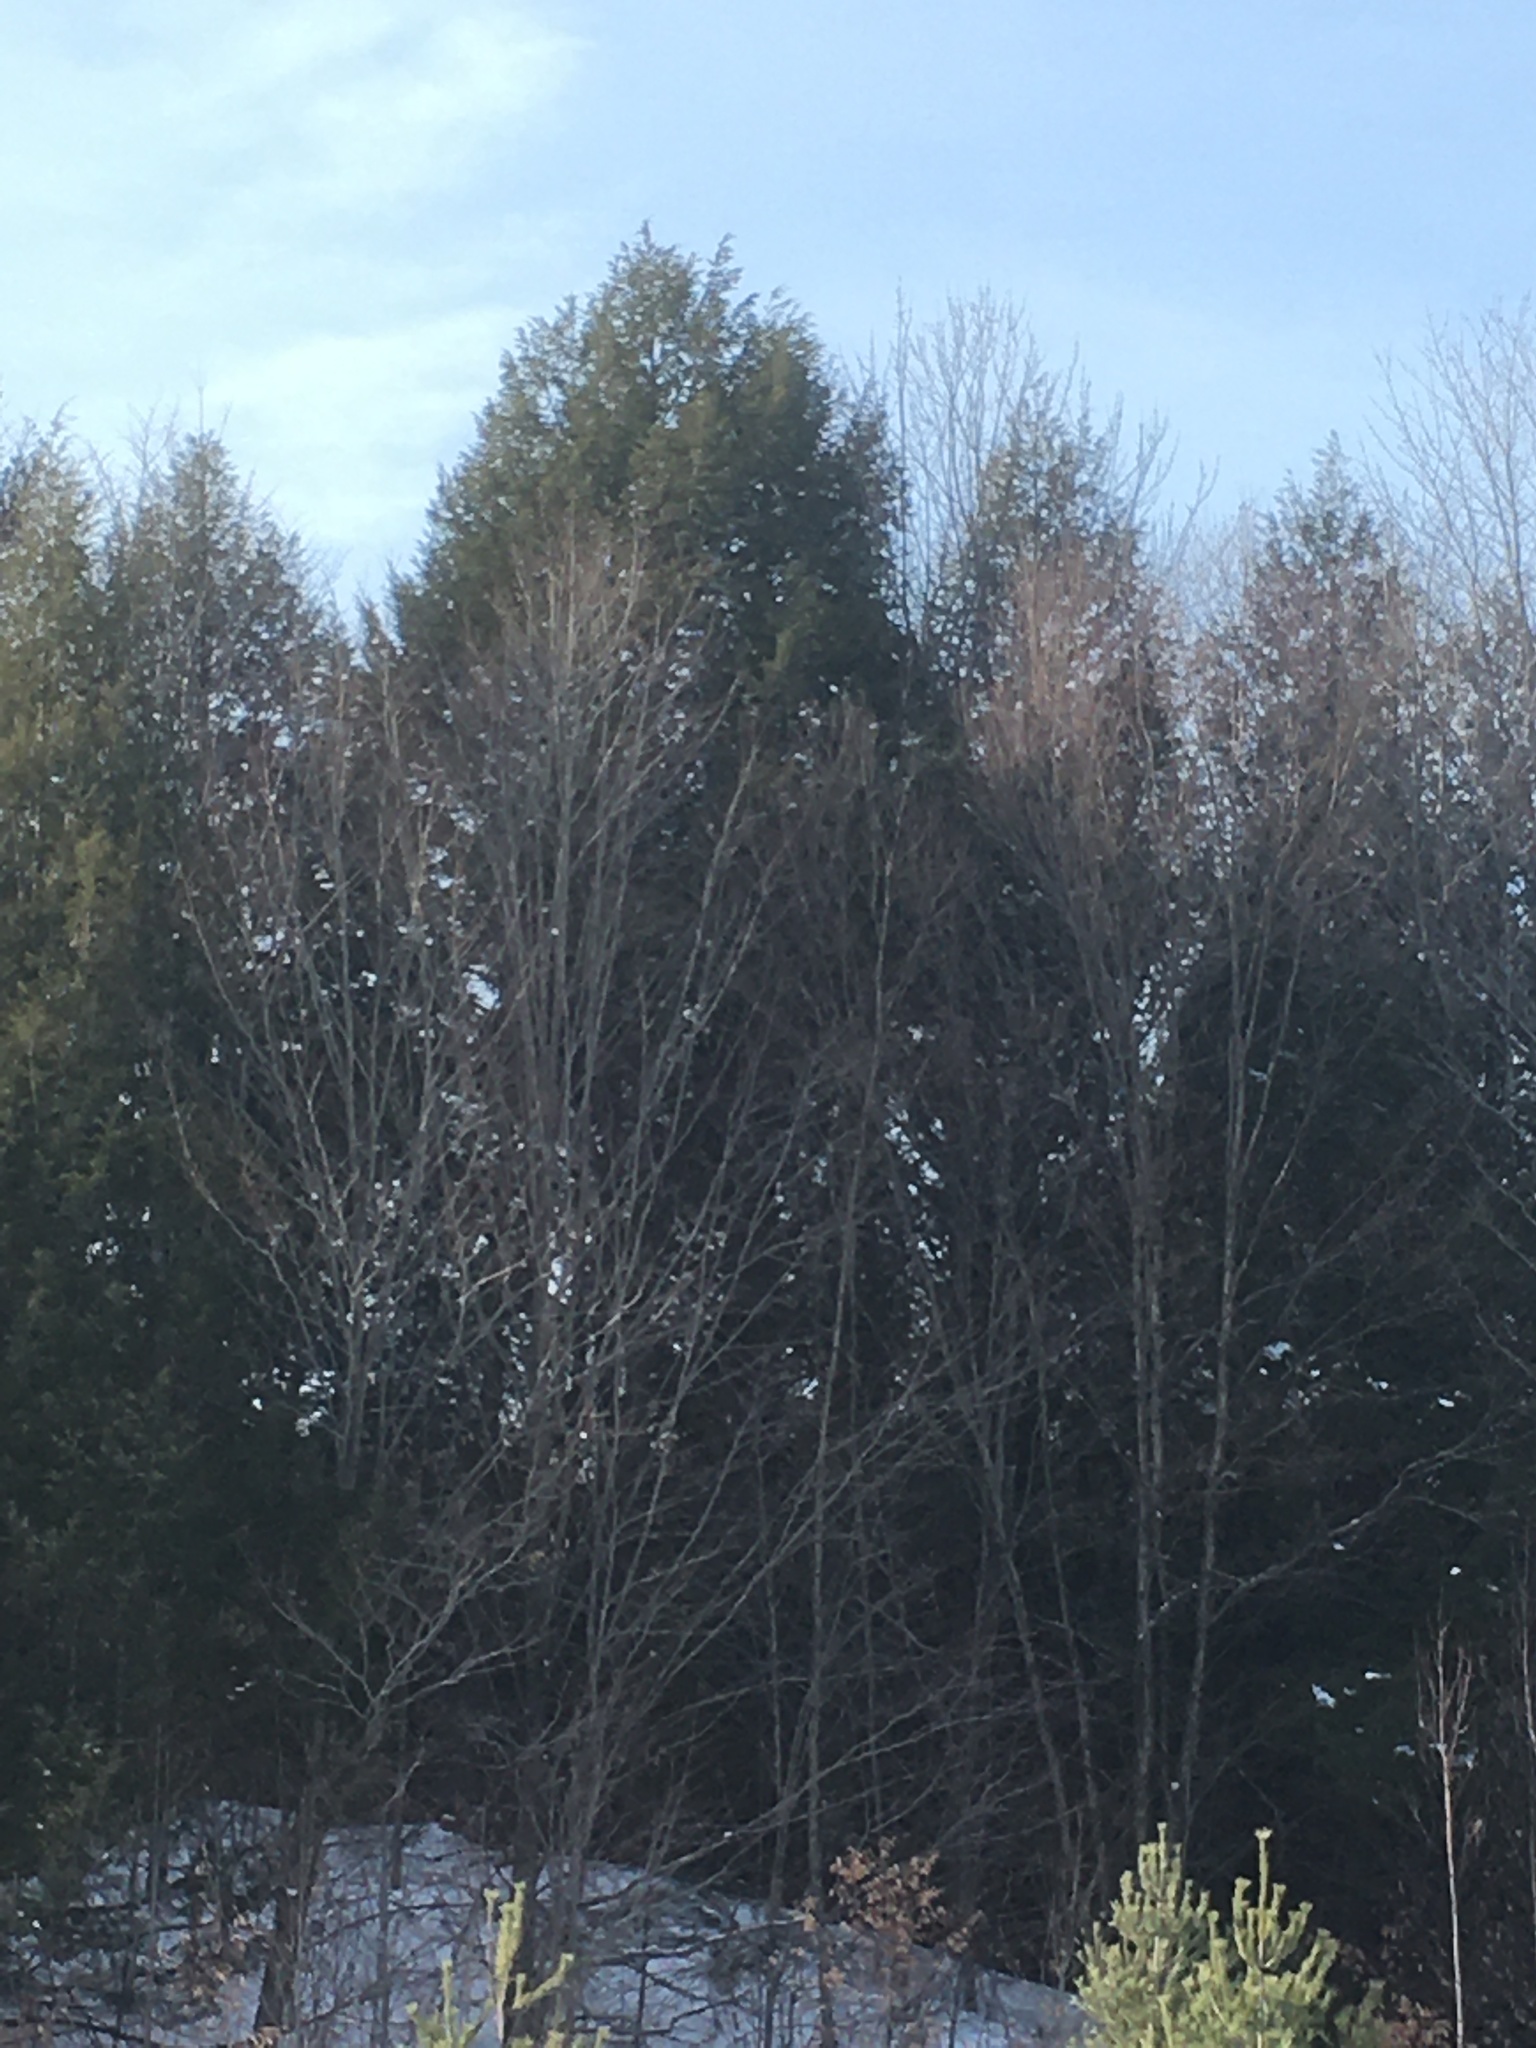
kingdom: Plantae
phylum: Tracheophyta
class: Pinopsida
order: Pinales
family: Pinaceae
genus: Tsuga
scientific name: Tsuga canadensis
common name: Eastern hemlock
